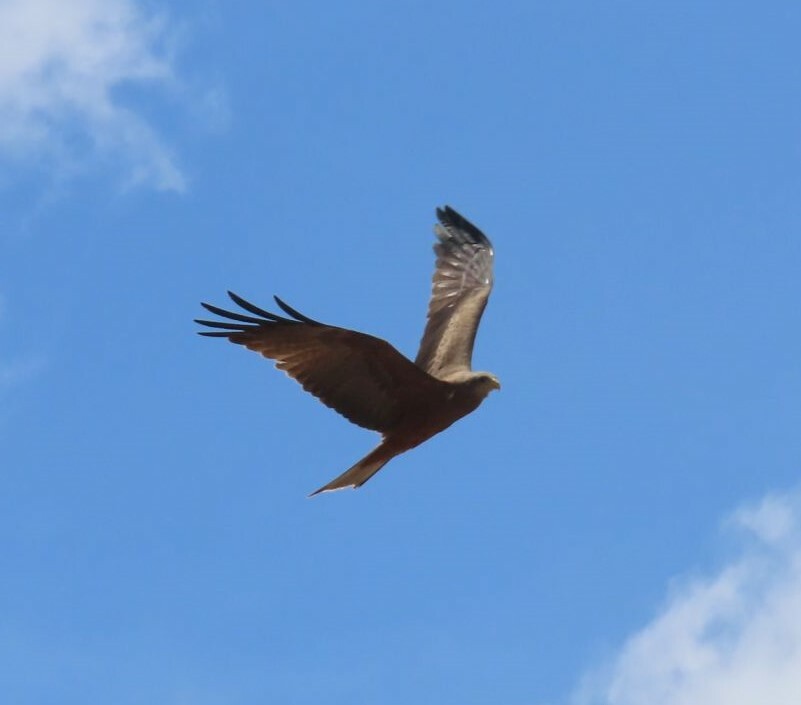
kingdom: Animalia
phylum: Chordata
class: Aves
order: Accipitriformes
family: Accipitridae
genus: Milvus
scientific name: Milvus migrans
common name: Black kite
